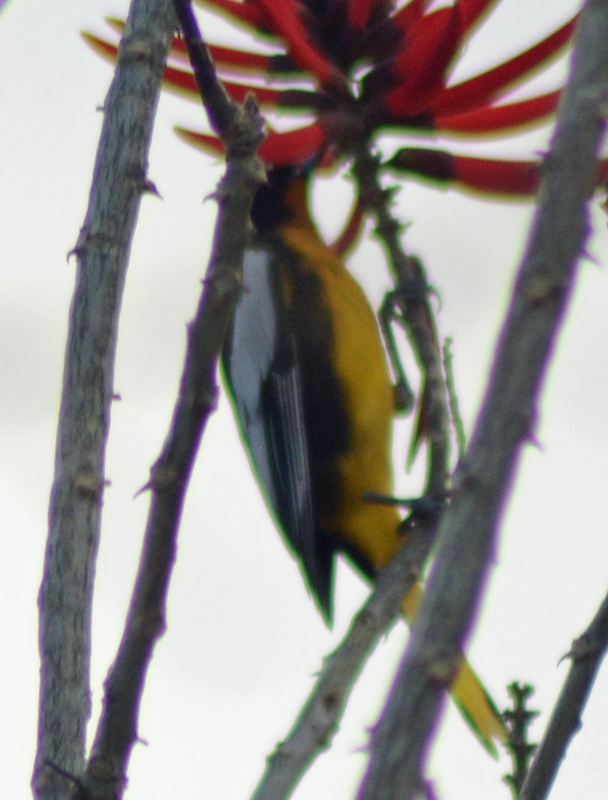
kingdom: Animalia
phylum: Chordata
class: Aves
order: Passeriformes
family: Icteridae
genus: Icterus
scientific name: Icterus abeillei
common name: Black-backed oriole
